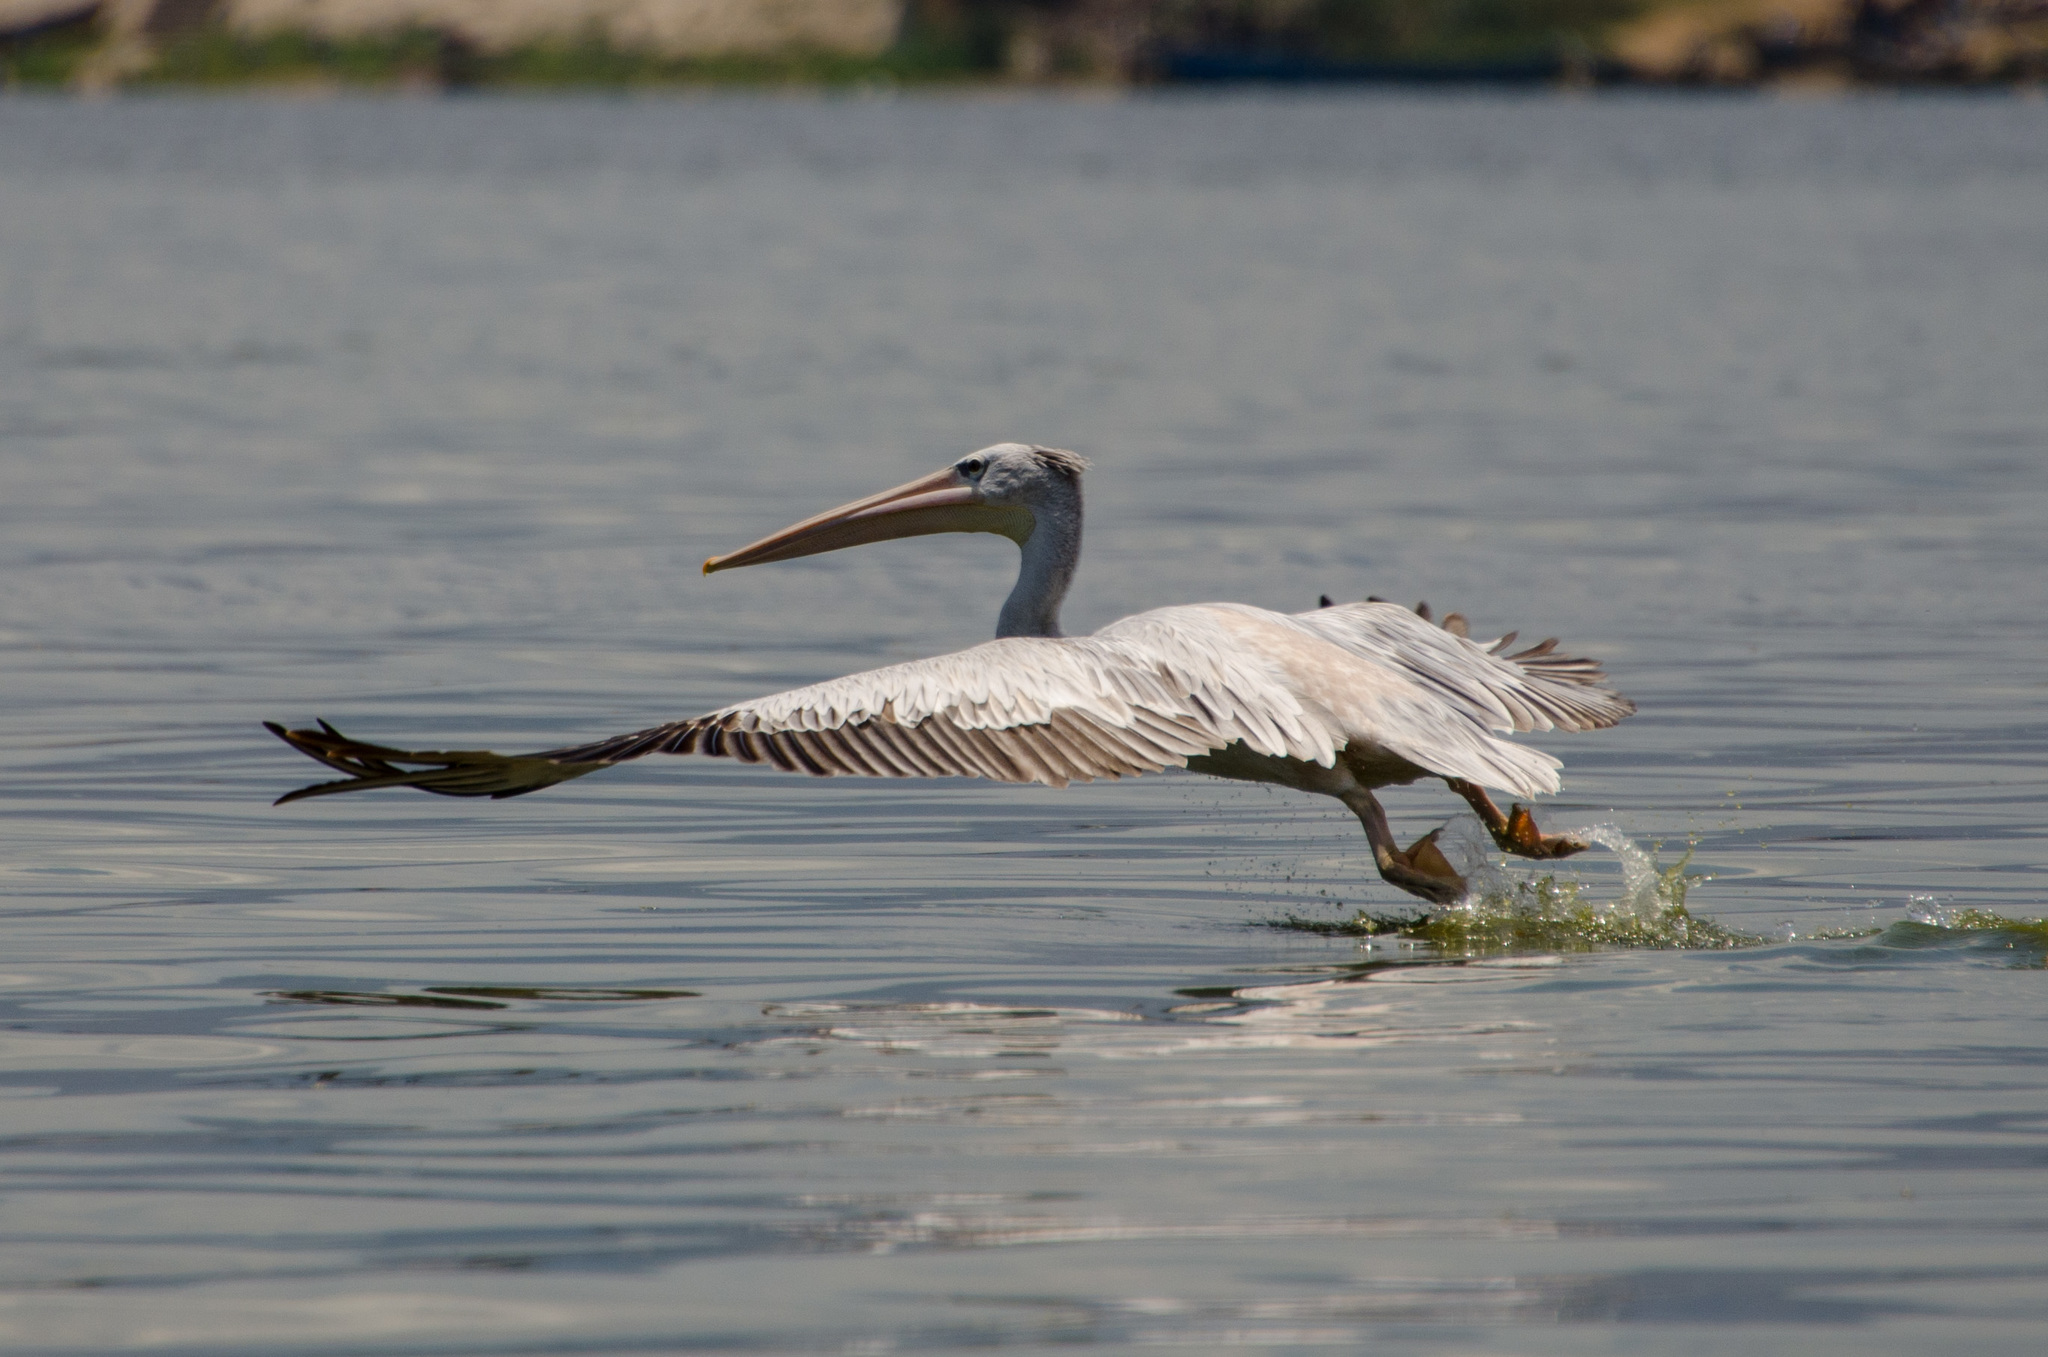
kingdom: Animalia
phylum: Chordata
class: Aves
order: Pelecaniformes
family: Pelecanidae
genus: Pelecanus
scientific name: Pelecanus rufescens
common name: Pink-backed pelican
